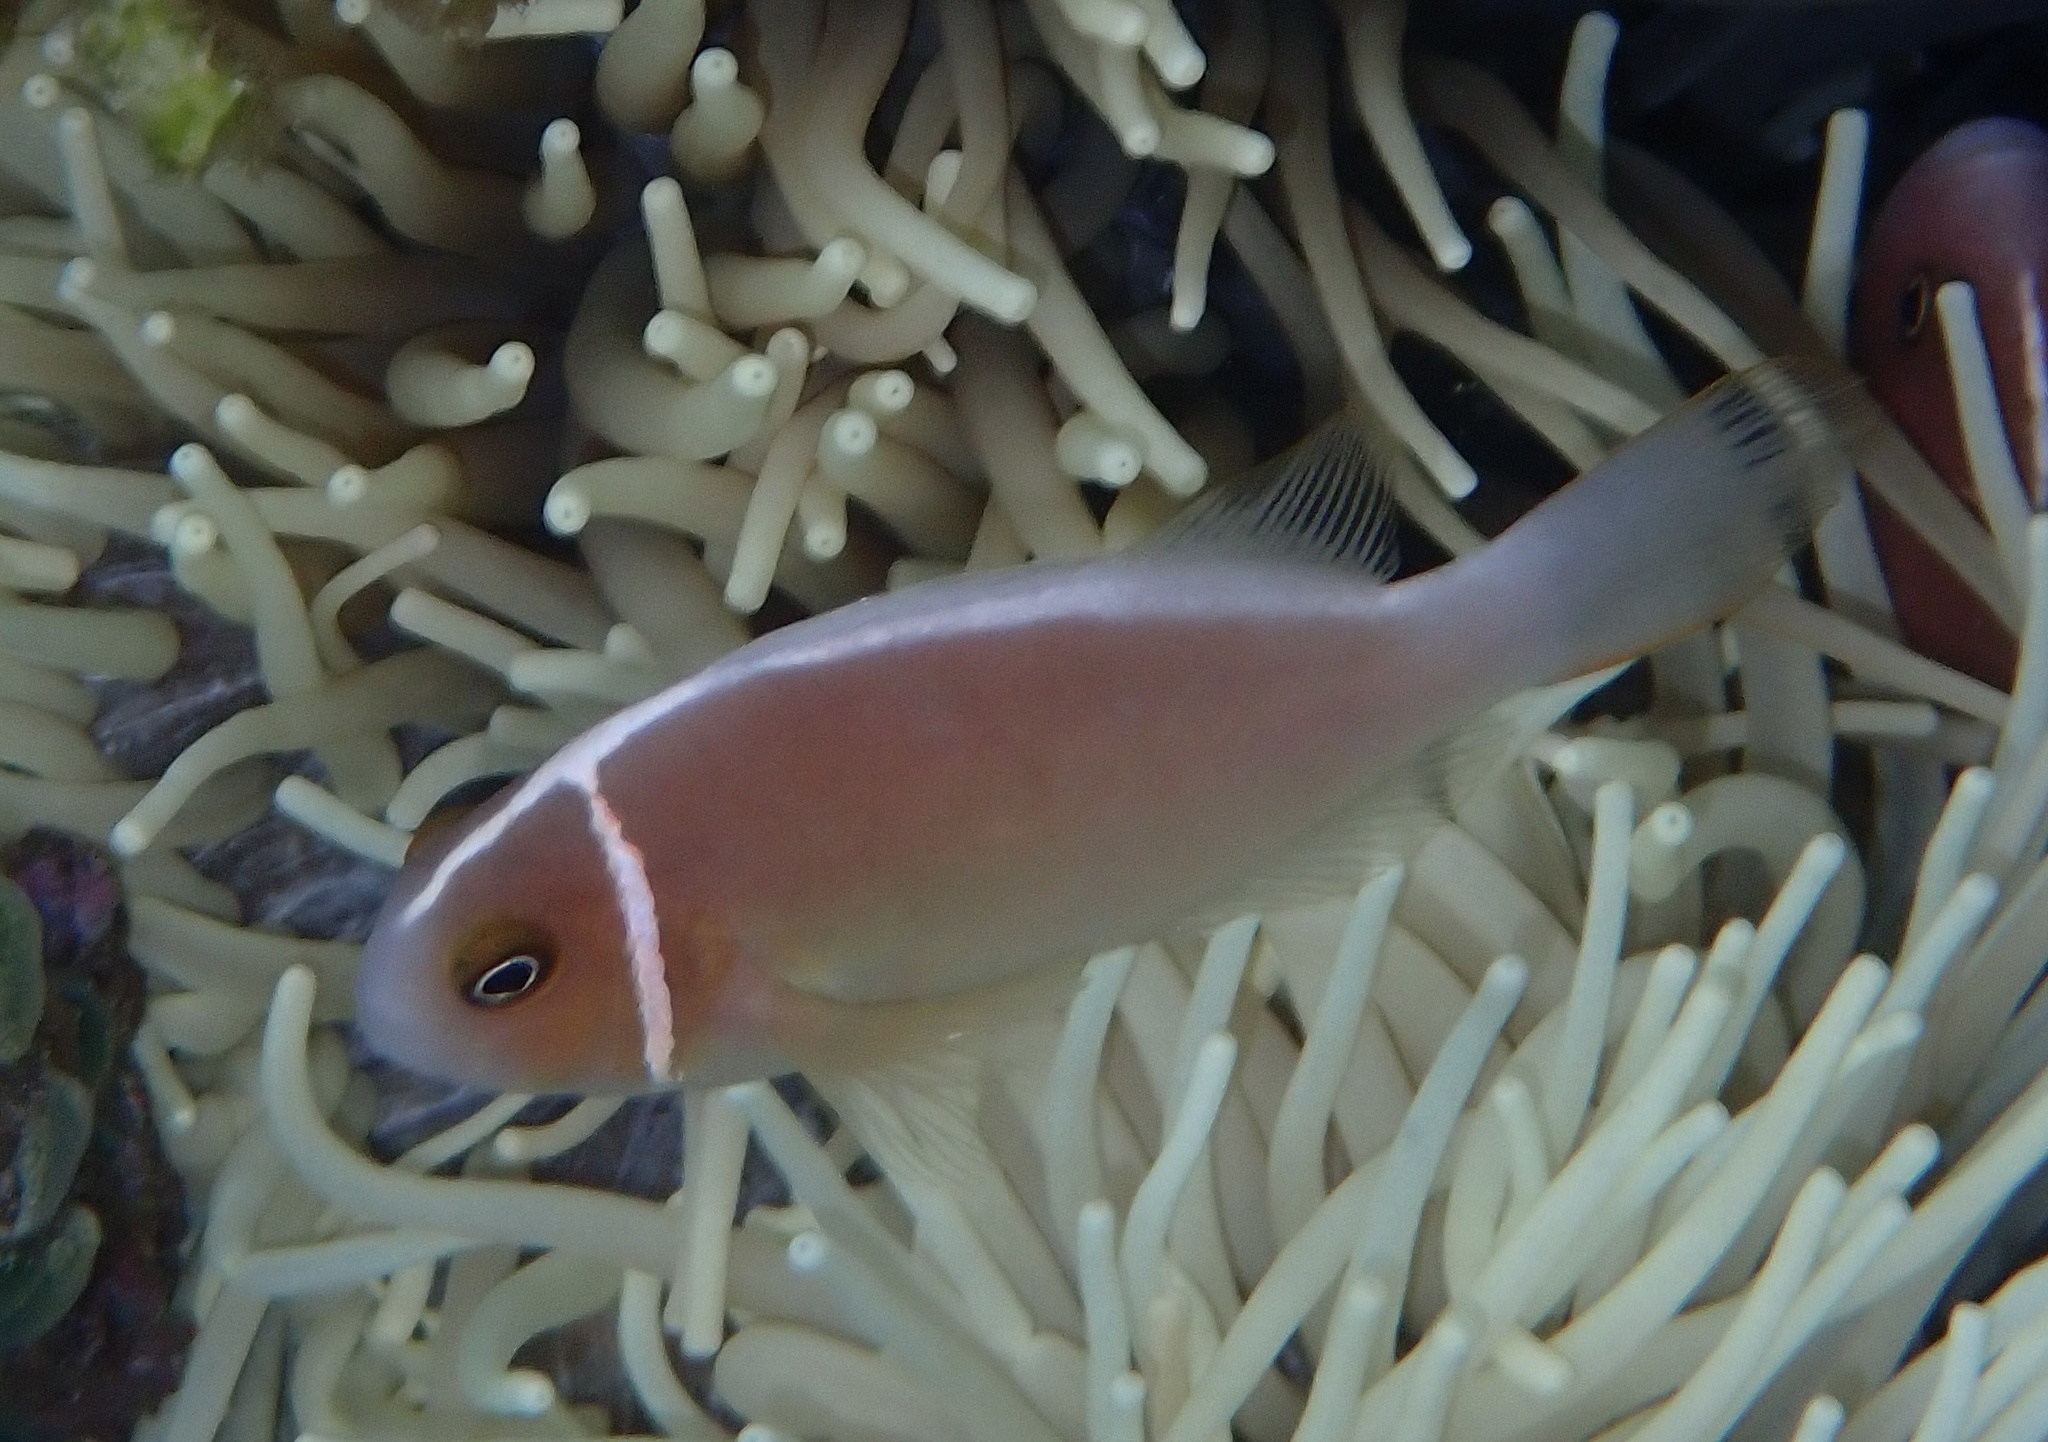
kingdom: Animalia
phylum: Chordata
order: Perciformes
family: Pomacentridae
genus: Amphiprion
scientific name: Amphiprion perideraion
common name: Pink anemonefish
